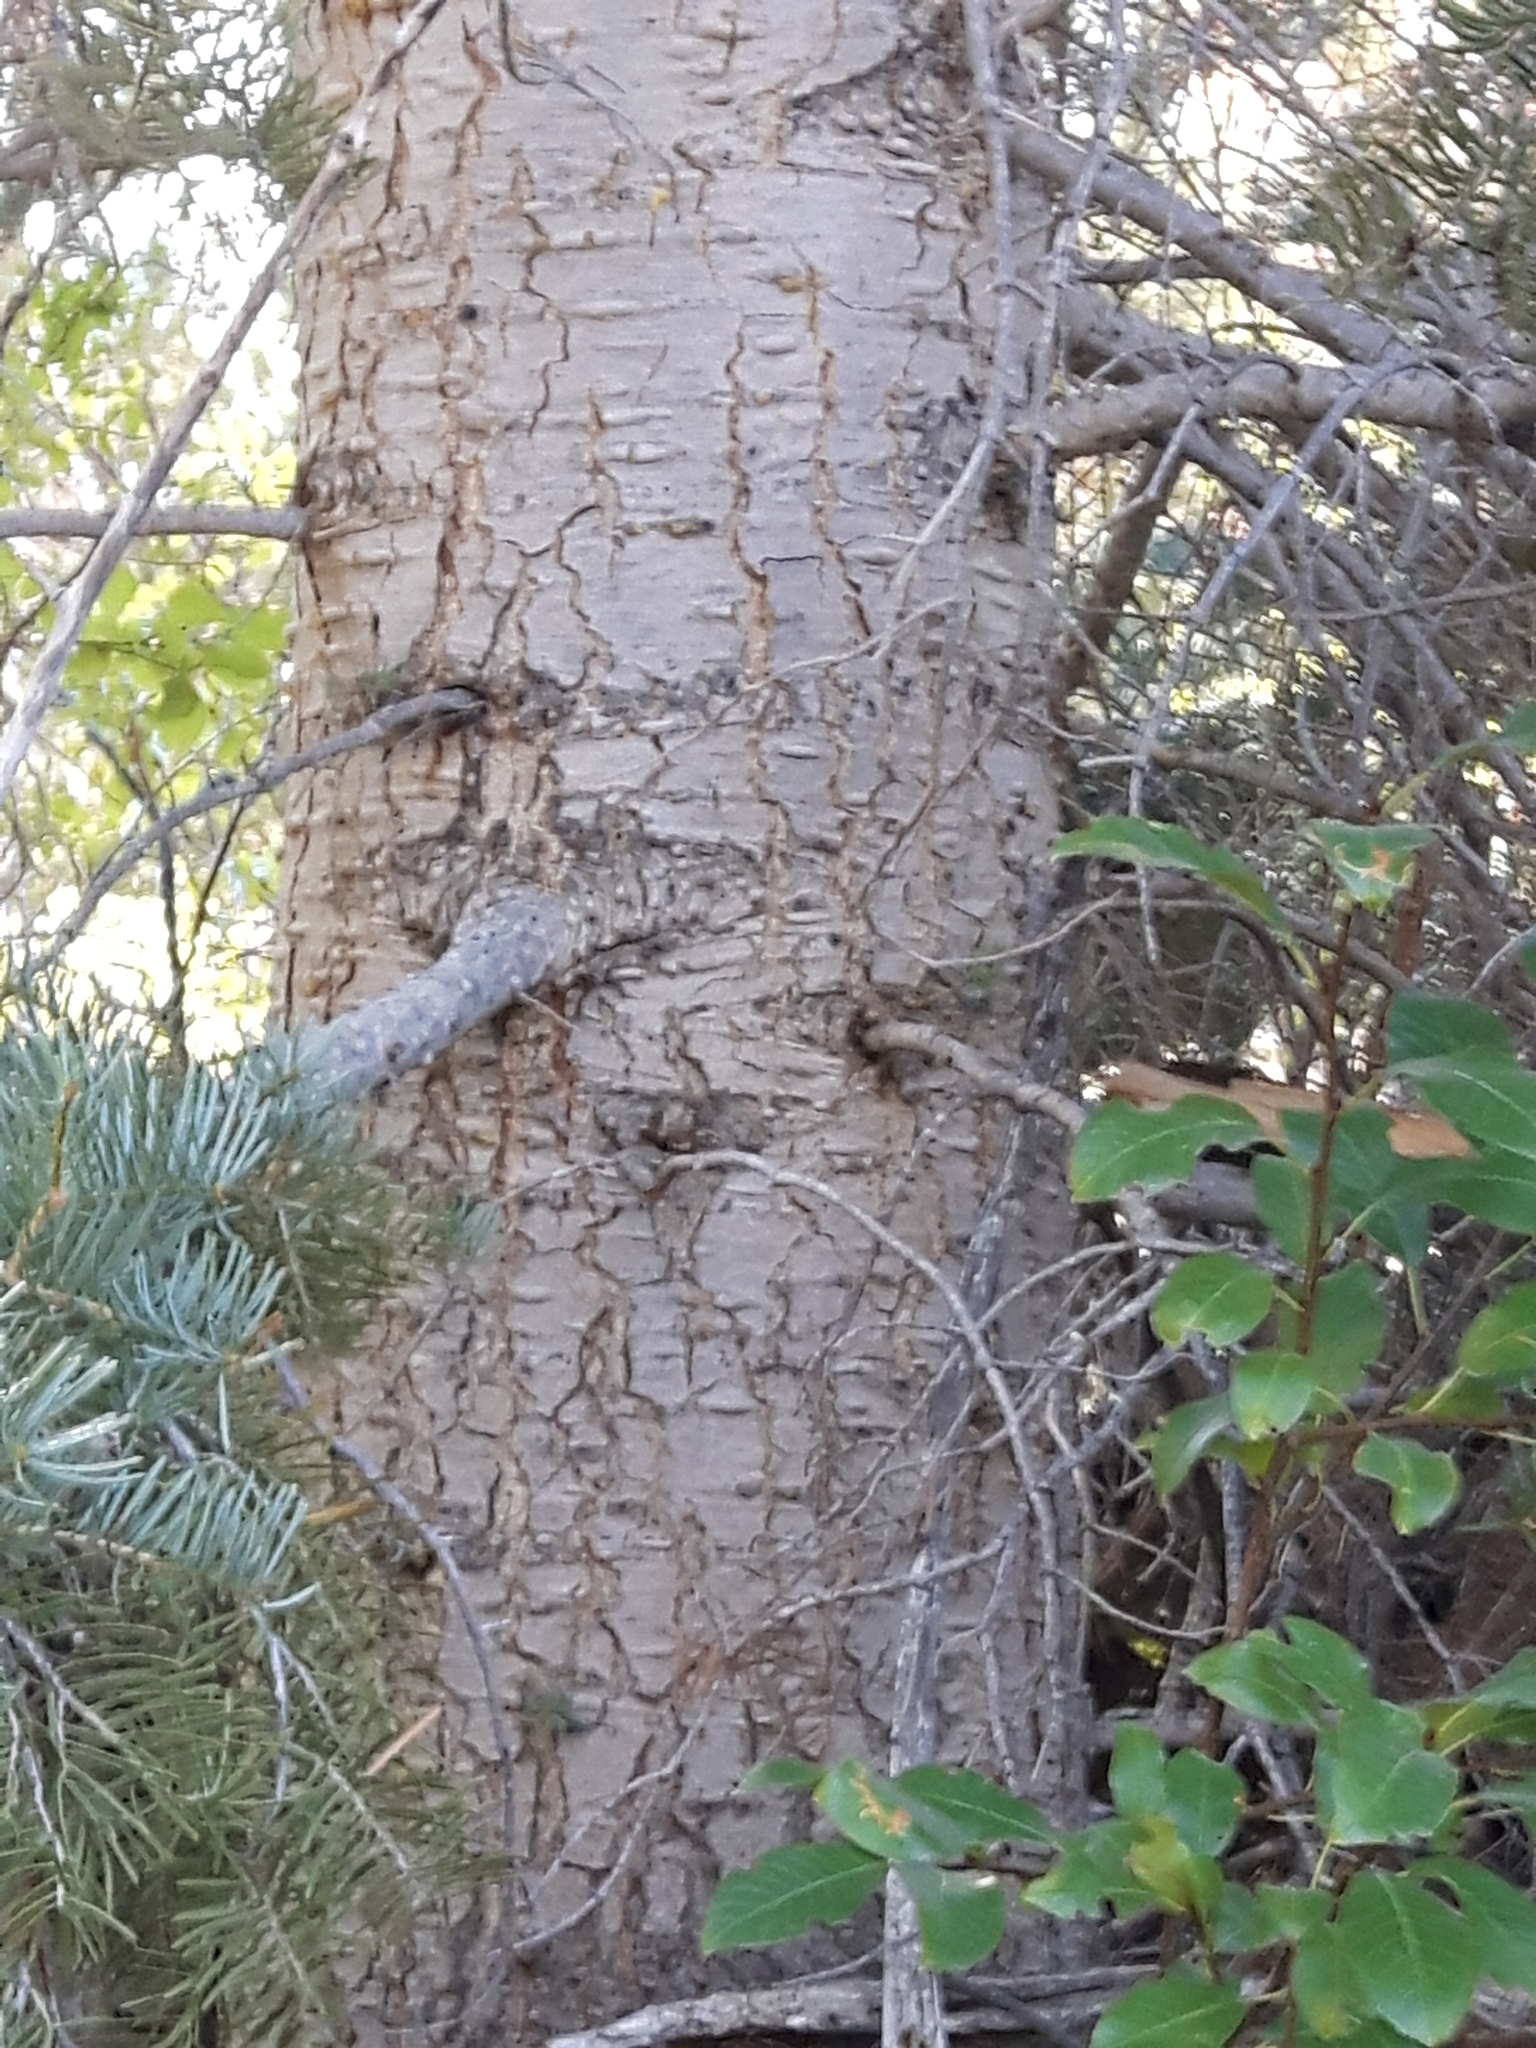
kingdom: Plantae
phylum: Tracheophyta
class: Pinopsida
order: Pinales
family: Pinaceae
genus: Abies
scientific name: Abies concolor
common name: Colorado fir
